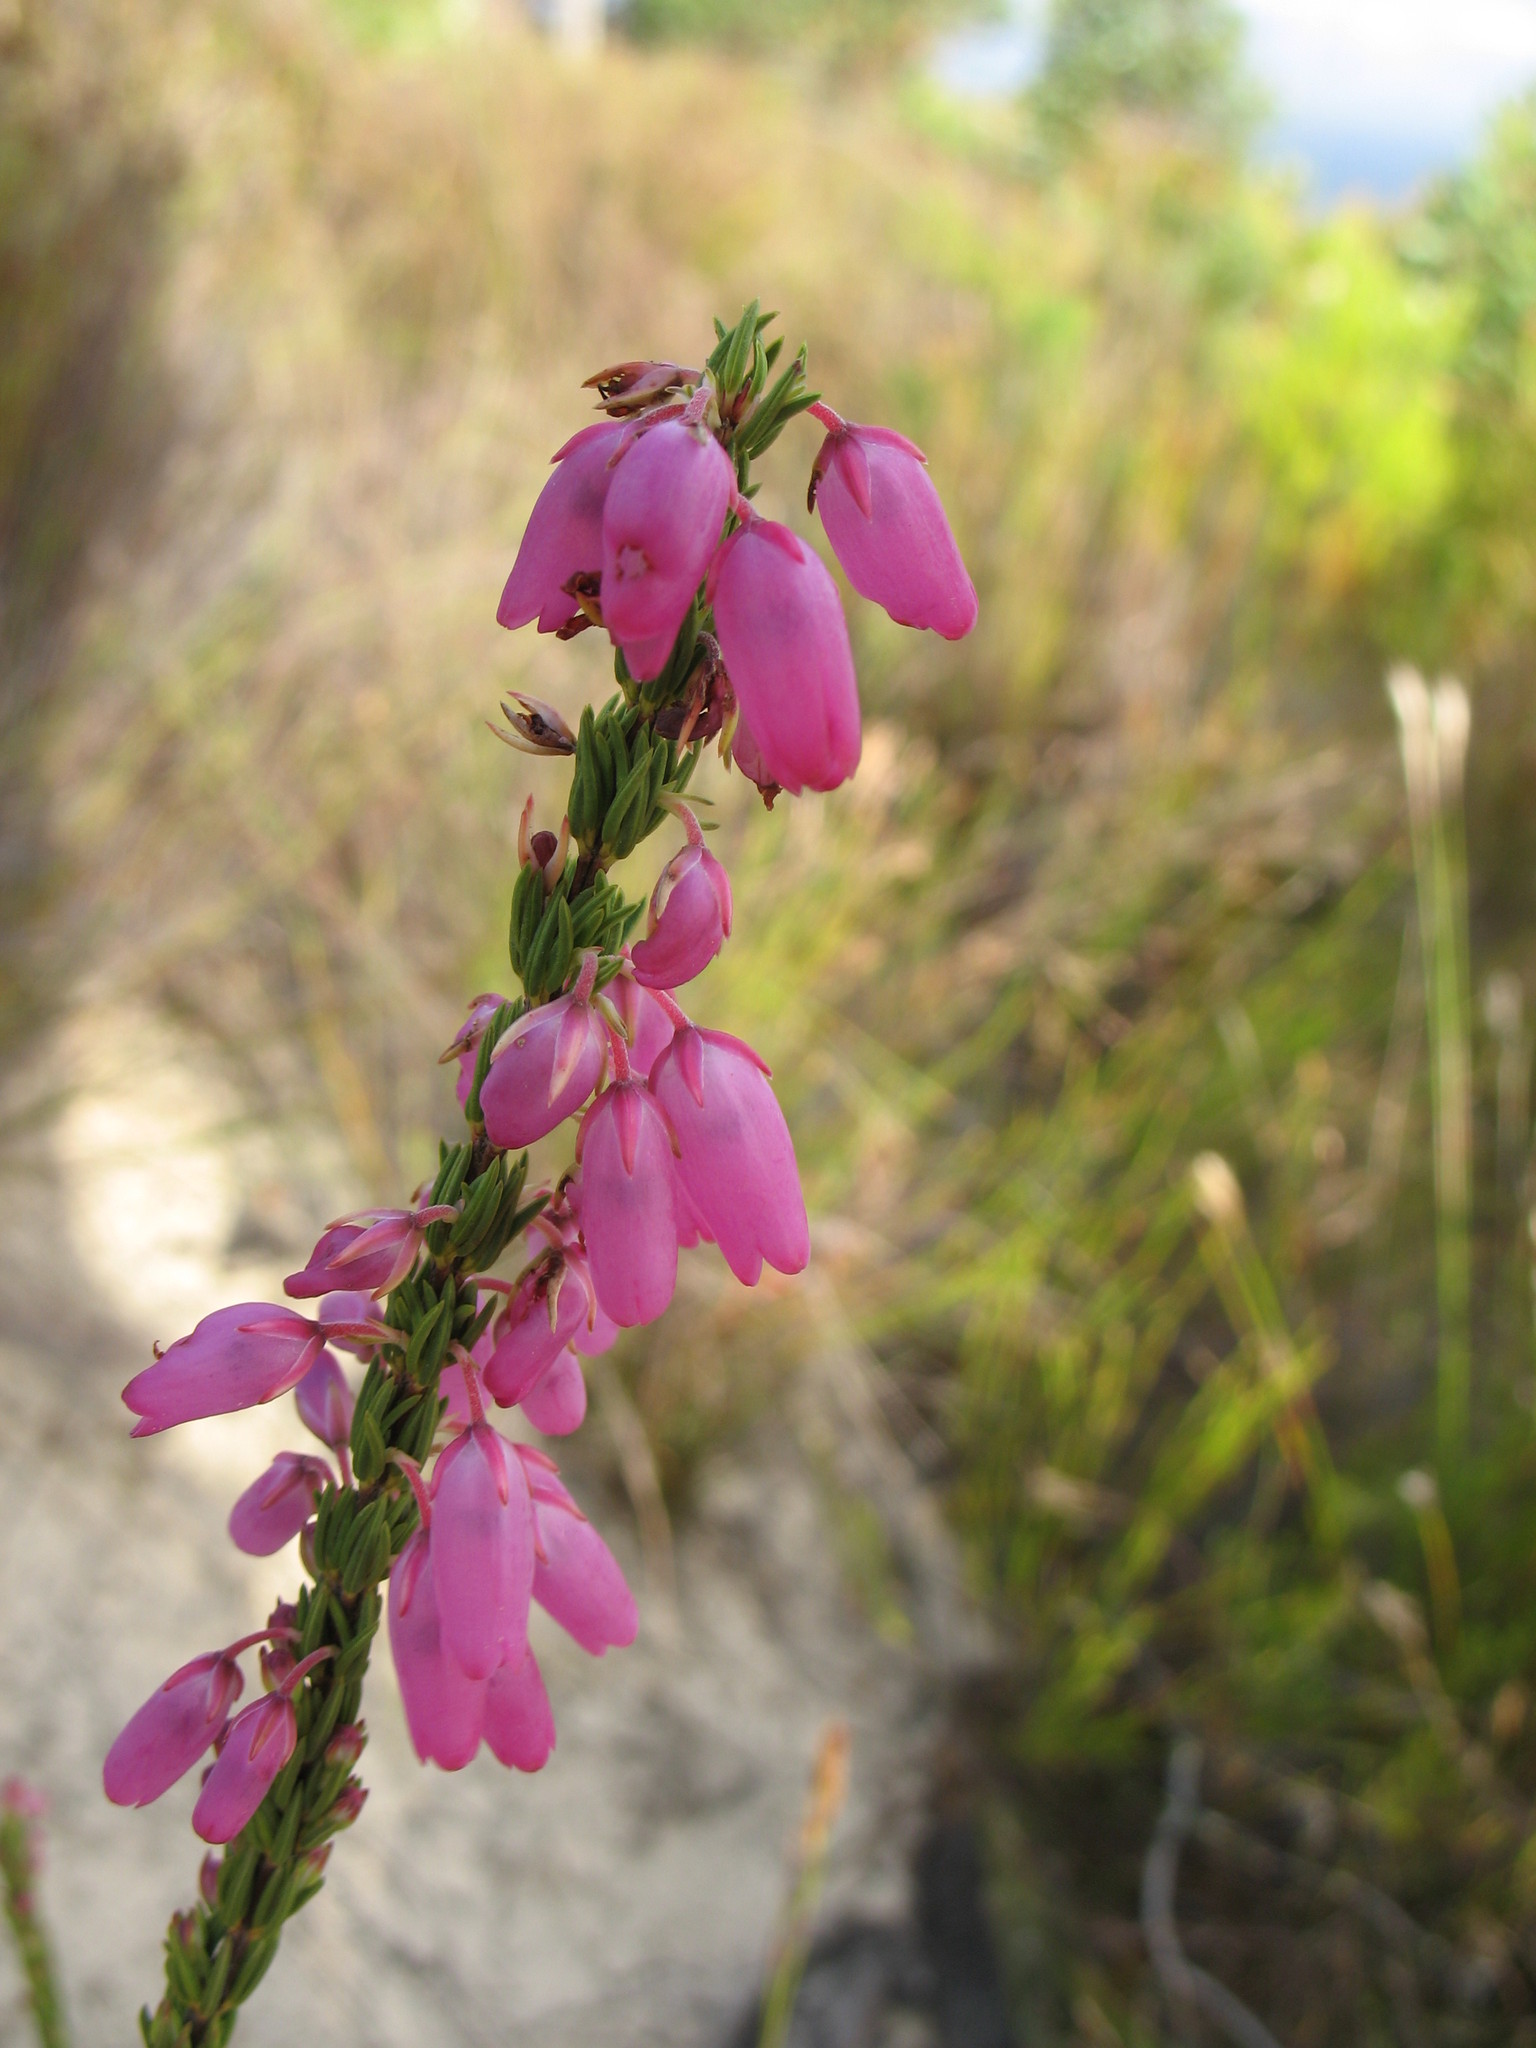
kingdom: Plantae
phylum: Tracheophyta
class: Magnoliopsida
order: Ericales
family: Ericaceae
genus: Erica
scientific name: Erica filipendula
